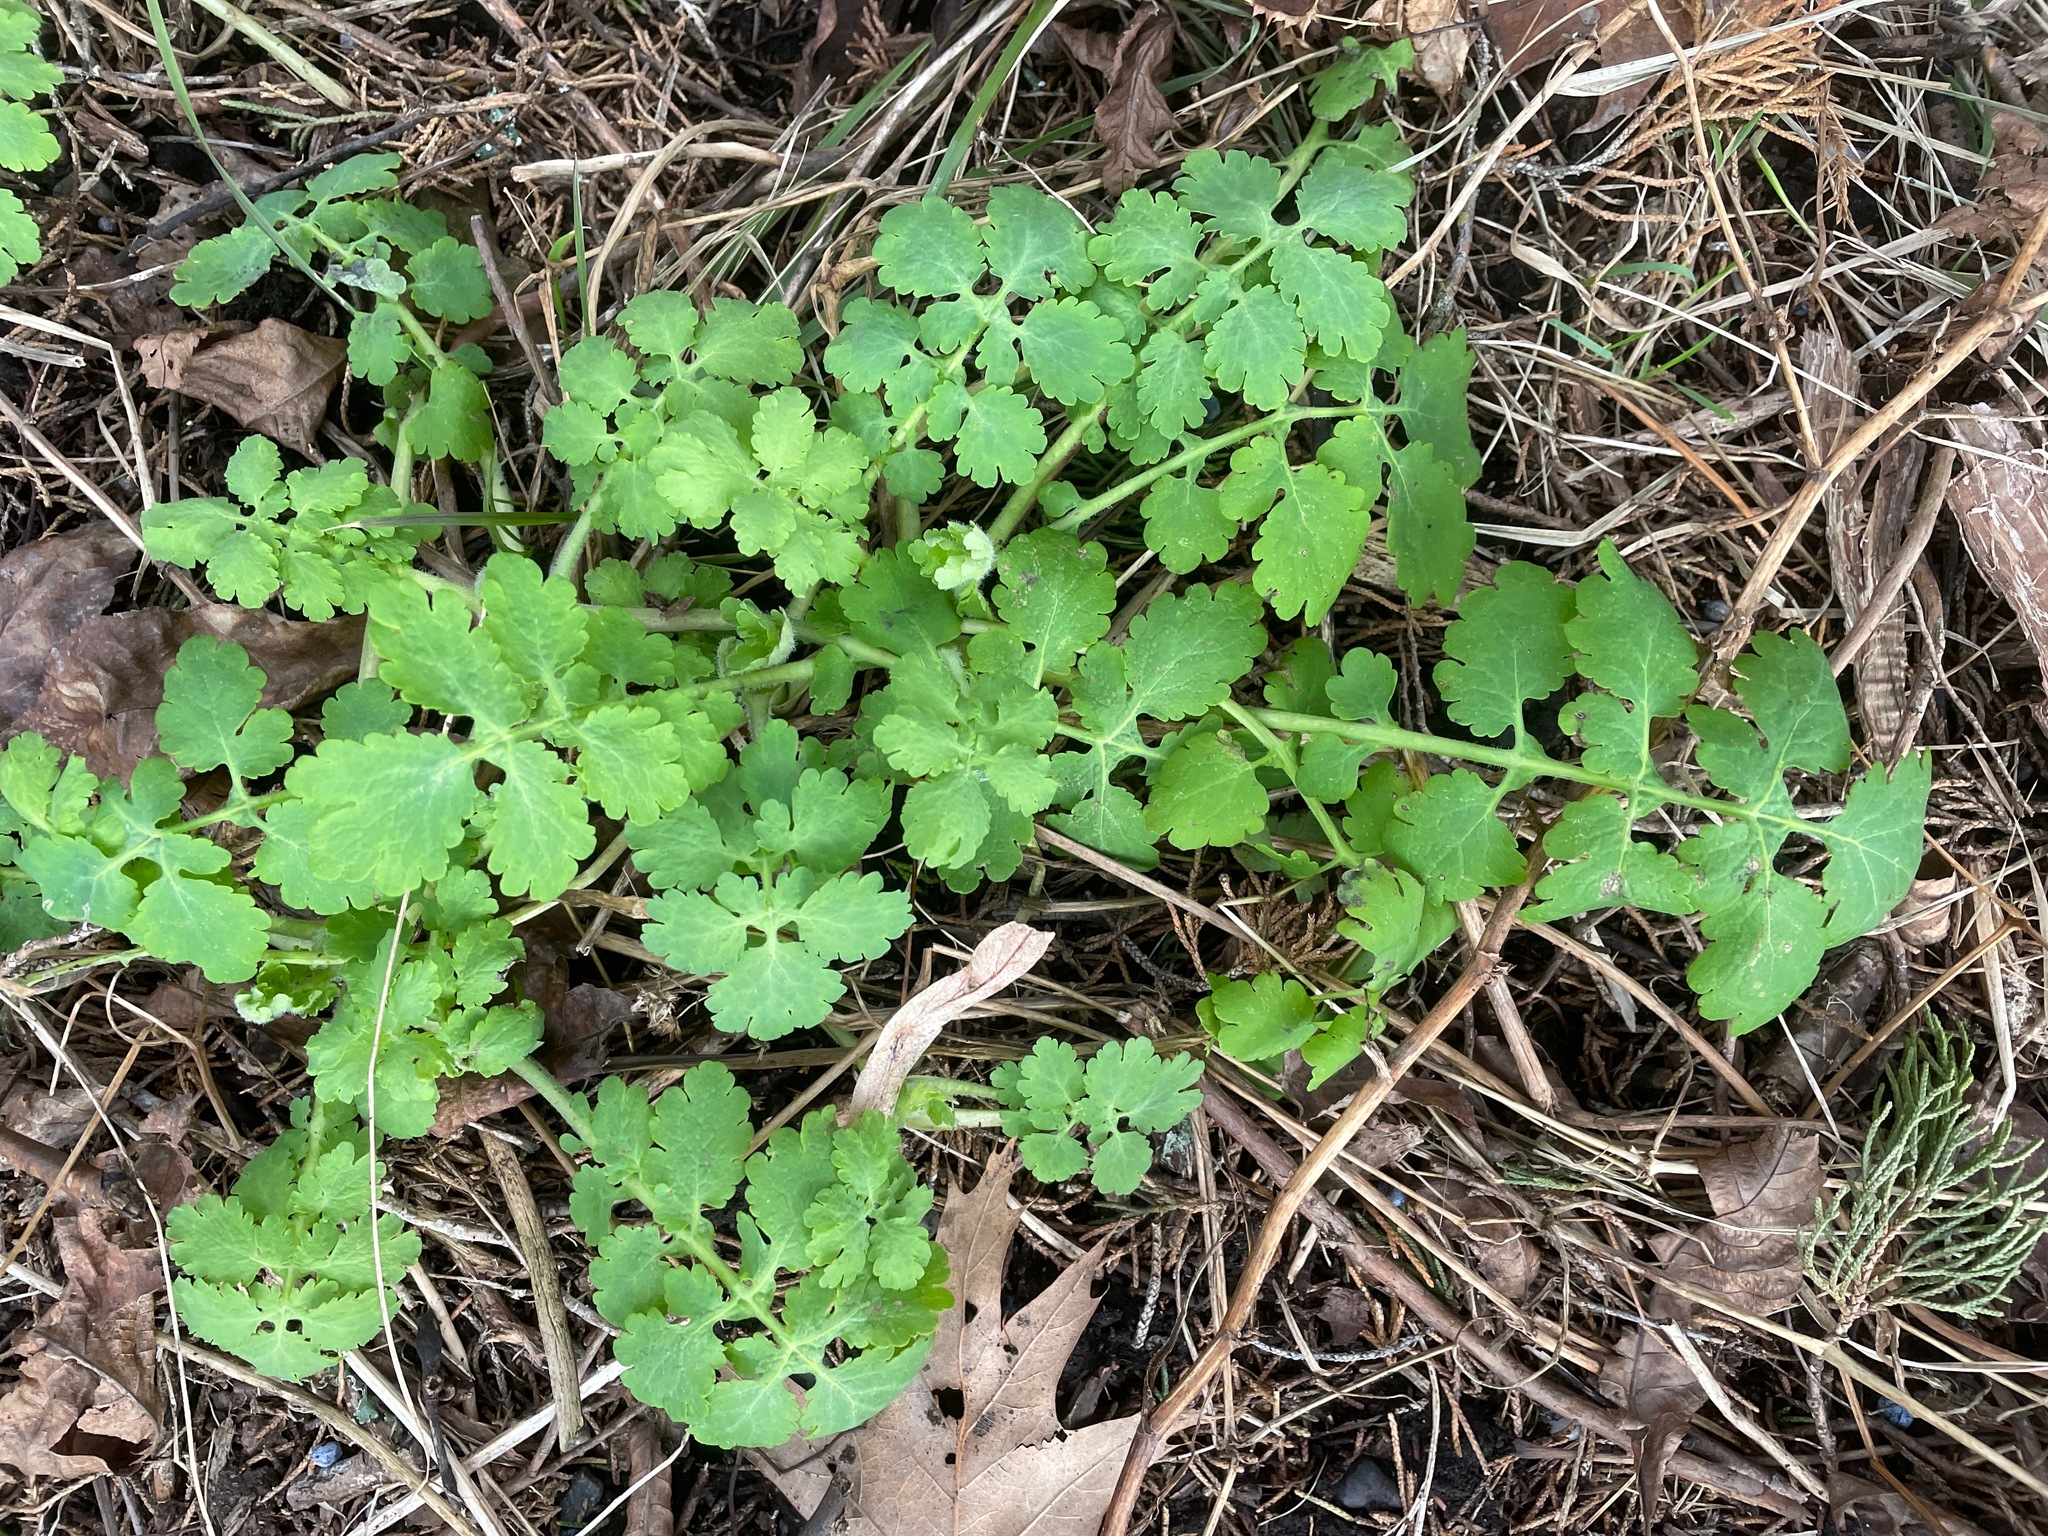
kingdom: Plantae
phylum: Tracheophyta
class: Magnoliopsida
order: Ranunculales
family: Papaveraceae
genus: Chelidonium
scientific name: Chelidonium majus
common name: Greater celandine
